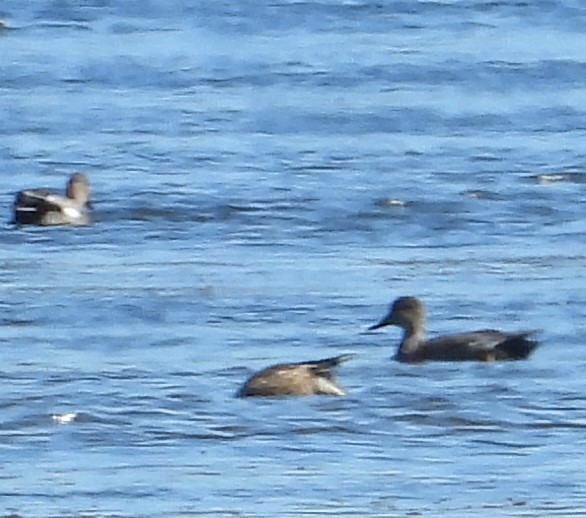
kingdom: Animalia
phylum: Chordata
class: Aves
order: Anseriformes
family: Anatidae
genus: Mareca
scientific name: Mareca strepera
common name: Gadwall
